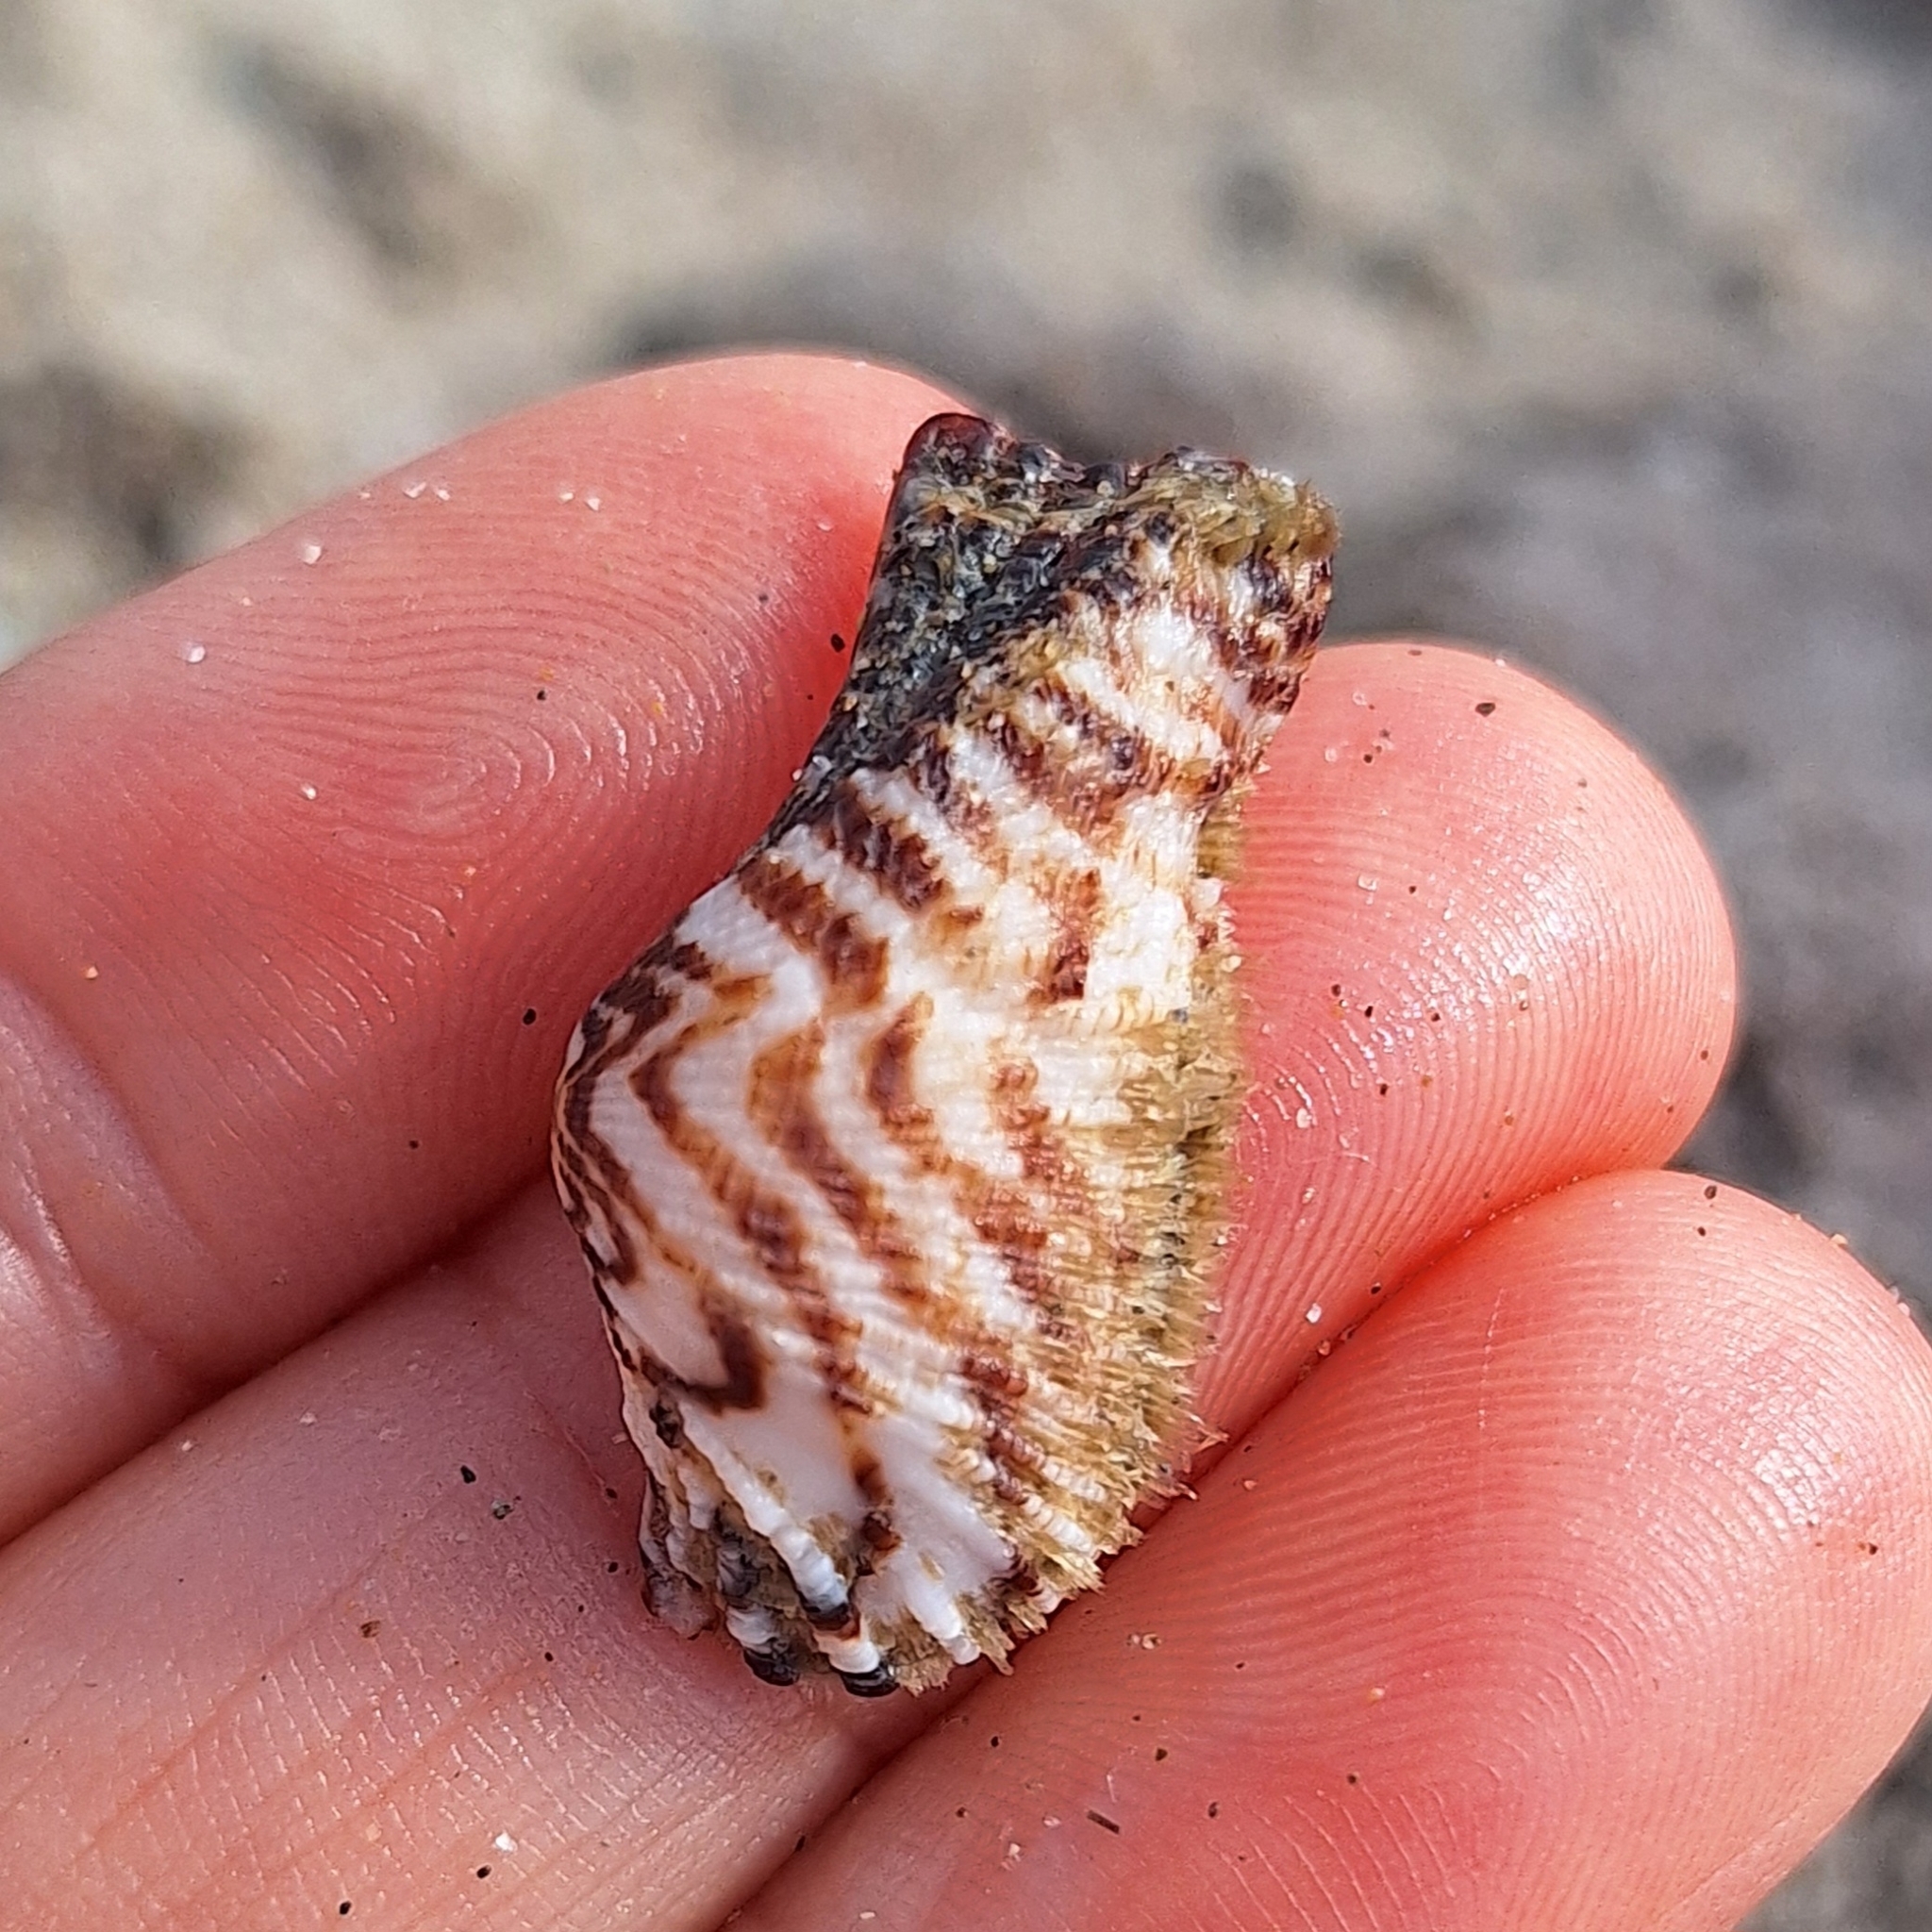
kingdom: Animalia
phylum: Mollusca
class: Bivalvia
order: Arcida
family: Arcidae
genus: Arca
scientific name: Arca noae
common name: Noah's arch
